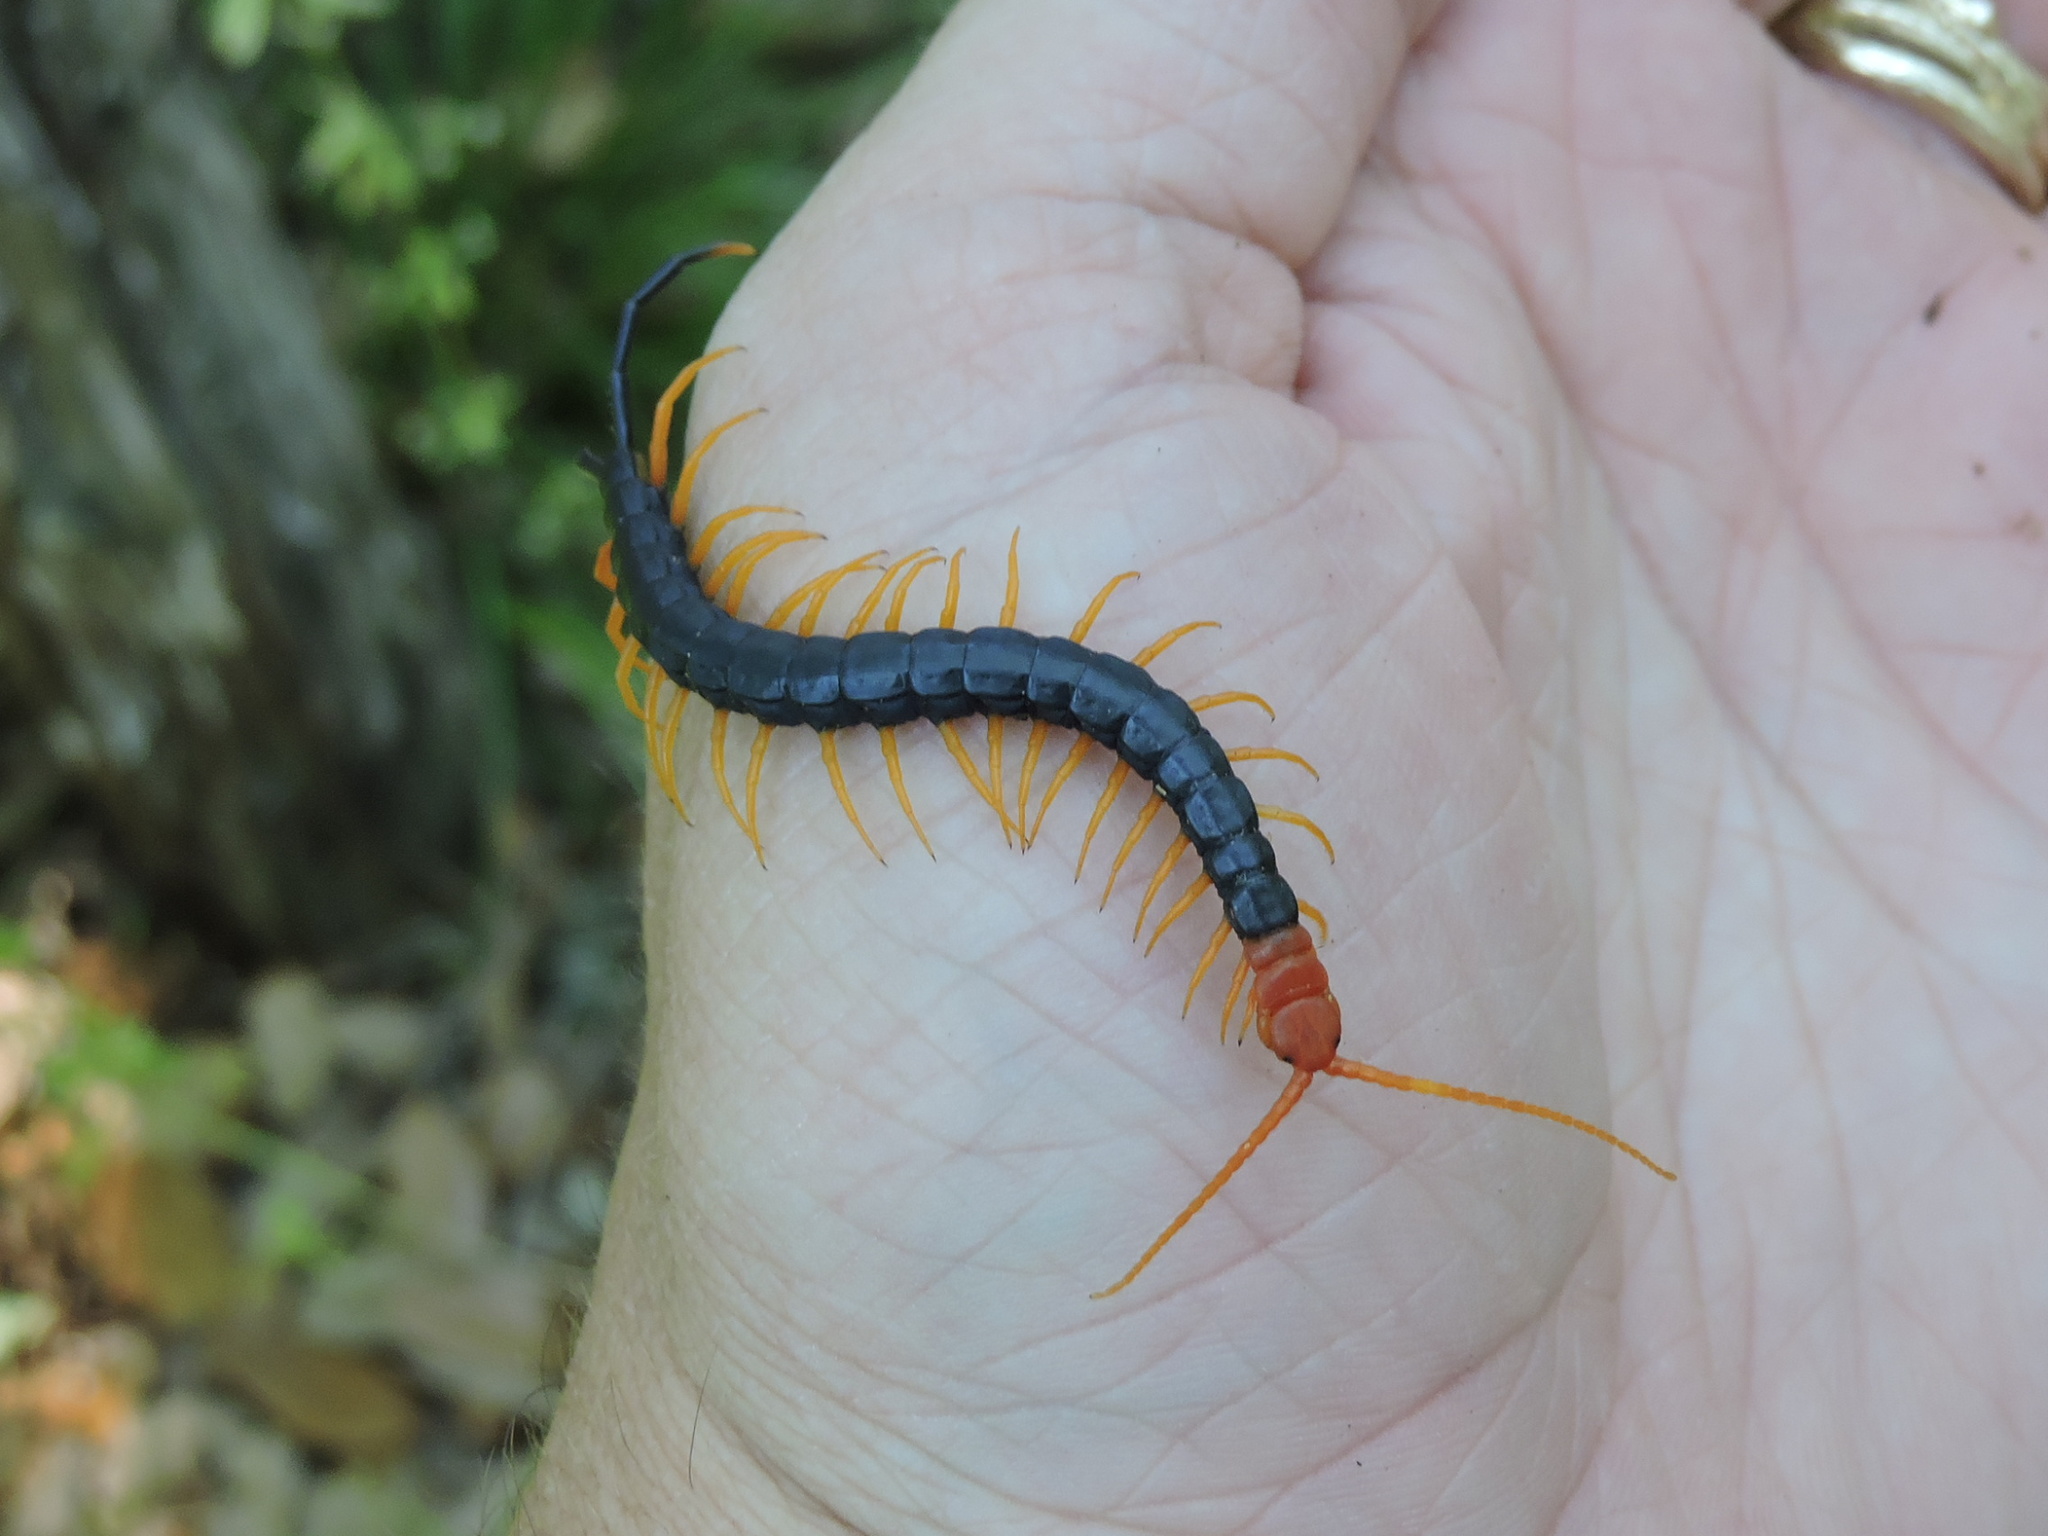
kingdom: Animalia
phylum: Arthropoda
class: Chilopoda
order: Scolopendromorpha
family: Scolopendridae
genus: Scolopendra
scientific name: Scolopendra heros
